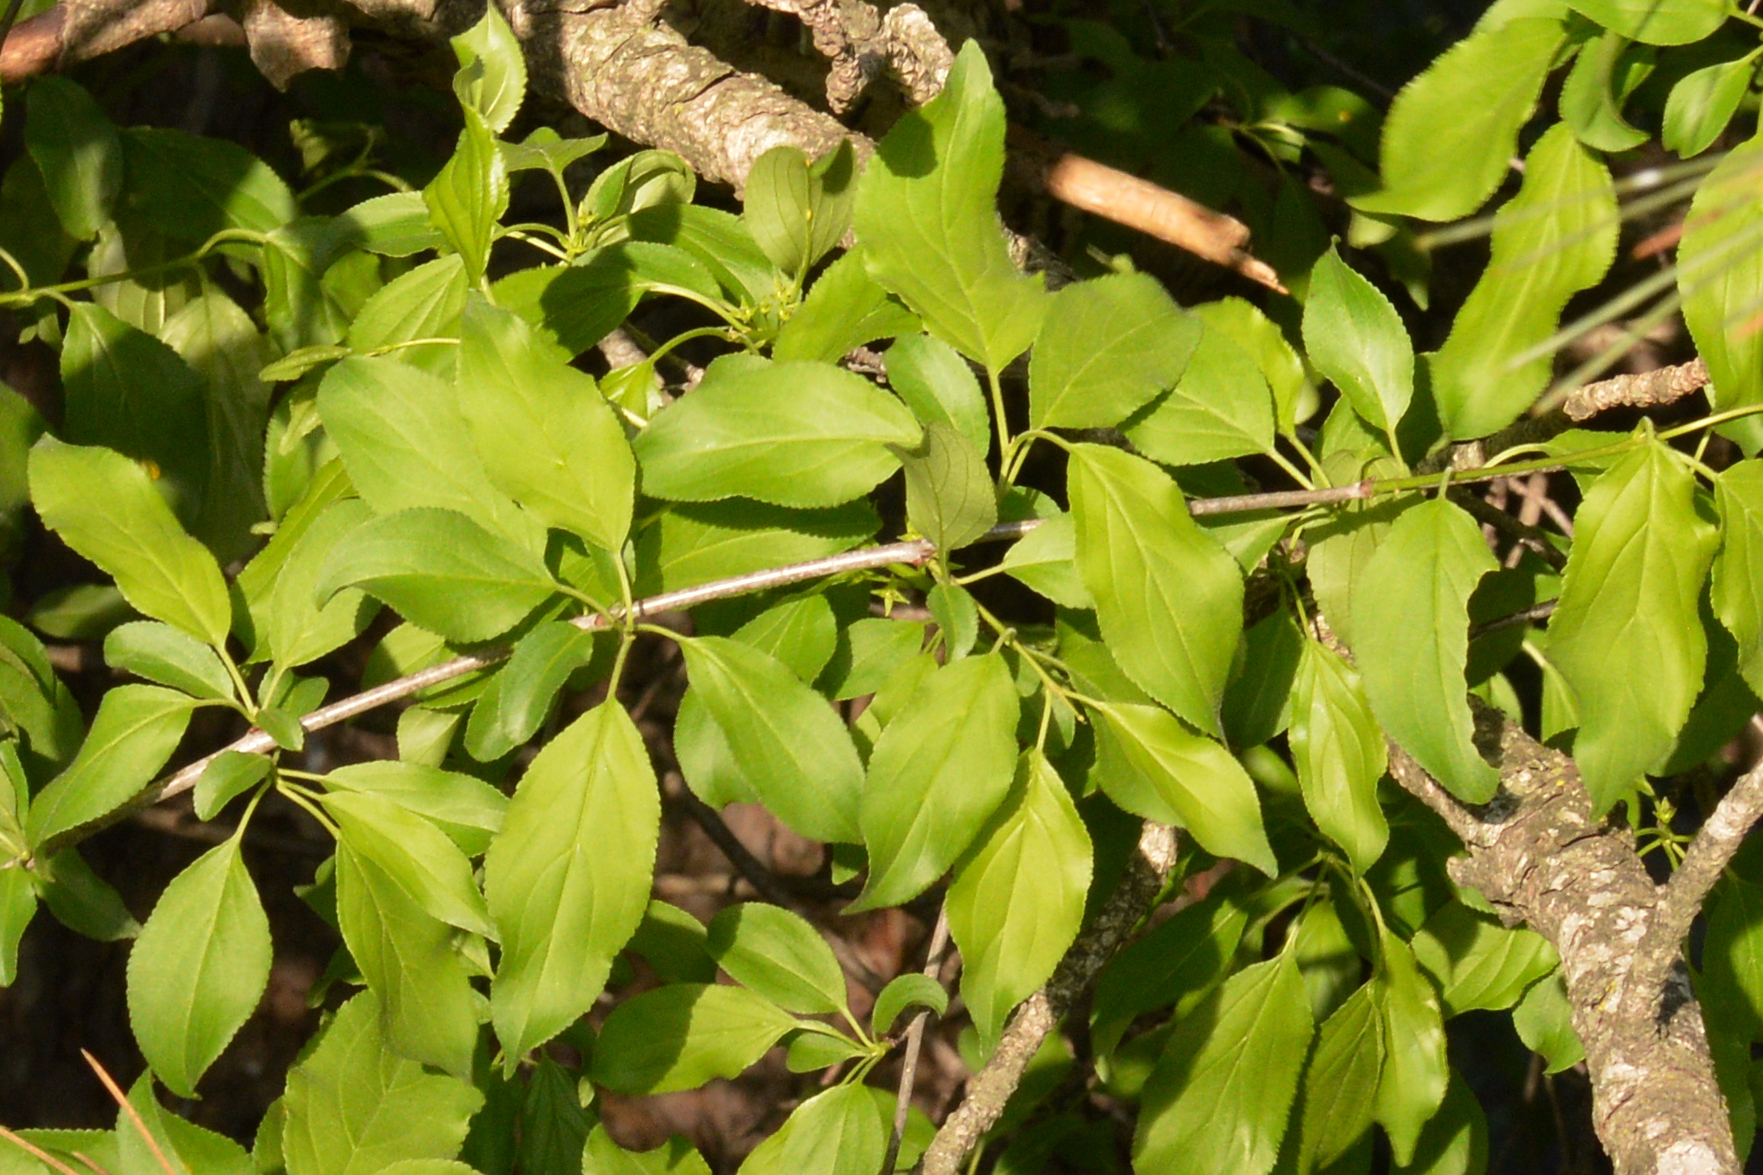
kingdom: Plantae
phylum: Tracheophyta
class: Magnoliopsida
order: Rosales
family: Rhamnaceae
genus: Rhamnus
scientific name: Rhamnus cathartica
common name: Common buckthorn
